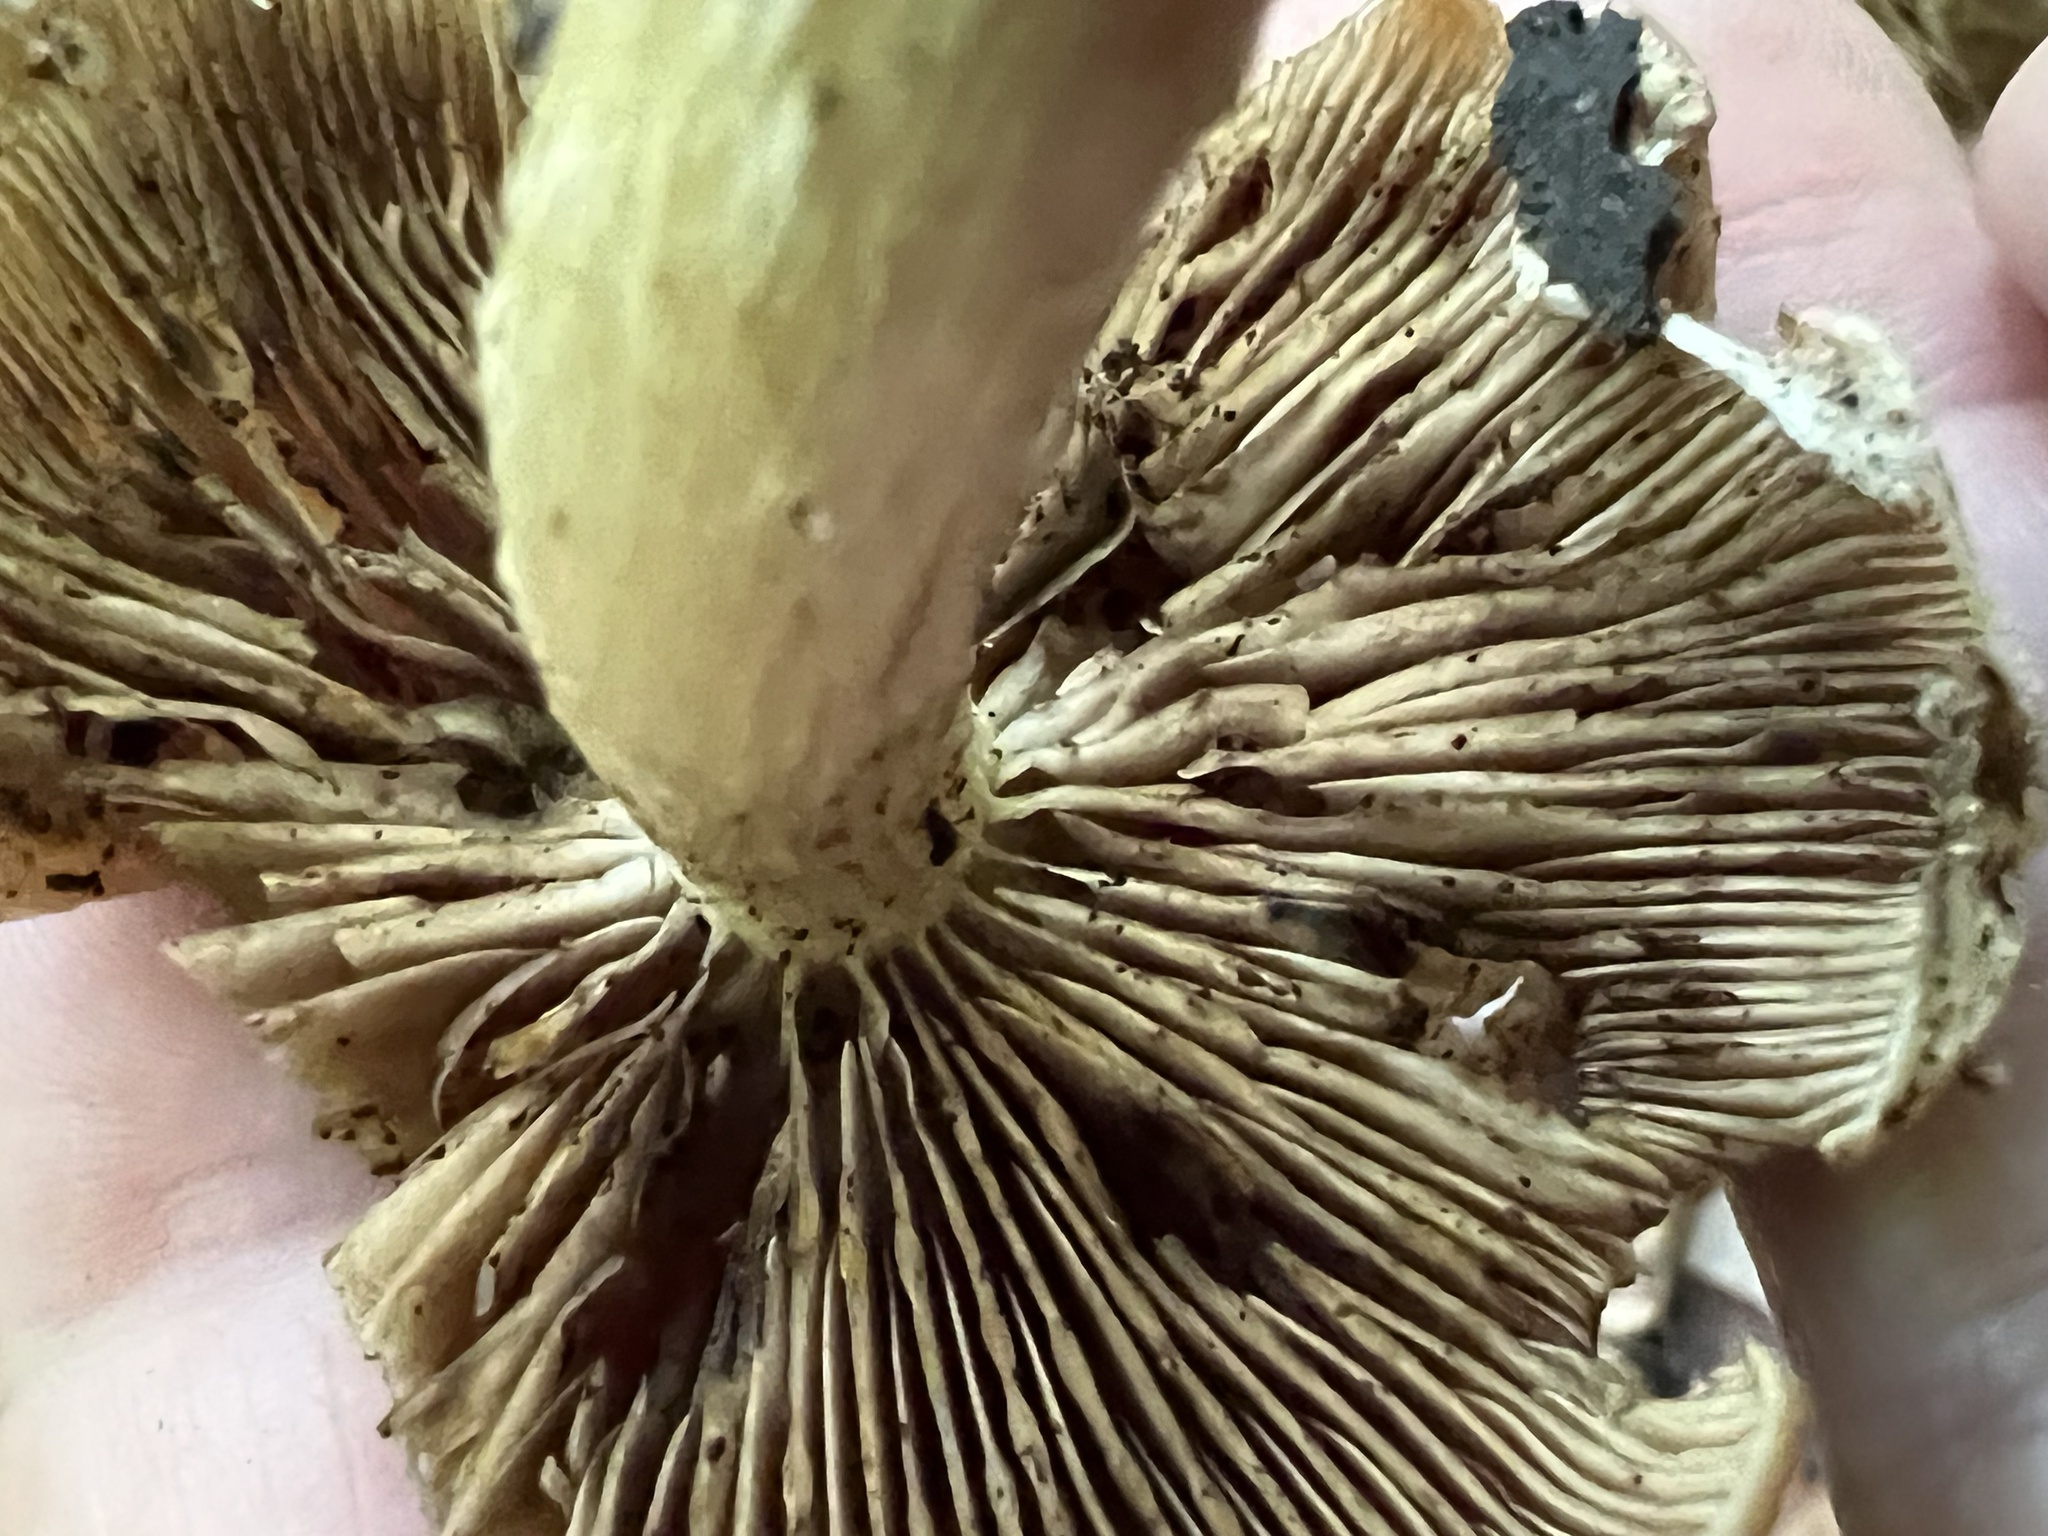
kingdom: Fungi
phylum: Basidiomycota
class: Agaricomycetes
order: Agaricales
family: Psathyrellaceae
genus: Typhrasa
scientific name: Typhrasa gossypina
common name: Wrinkled psathyrella
